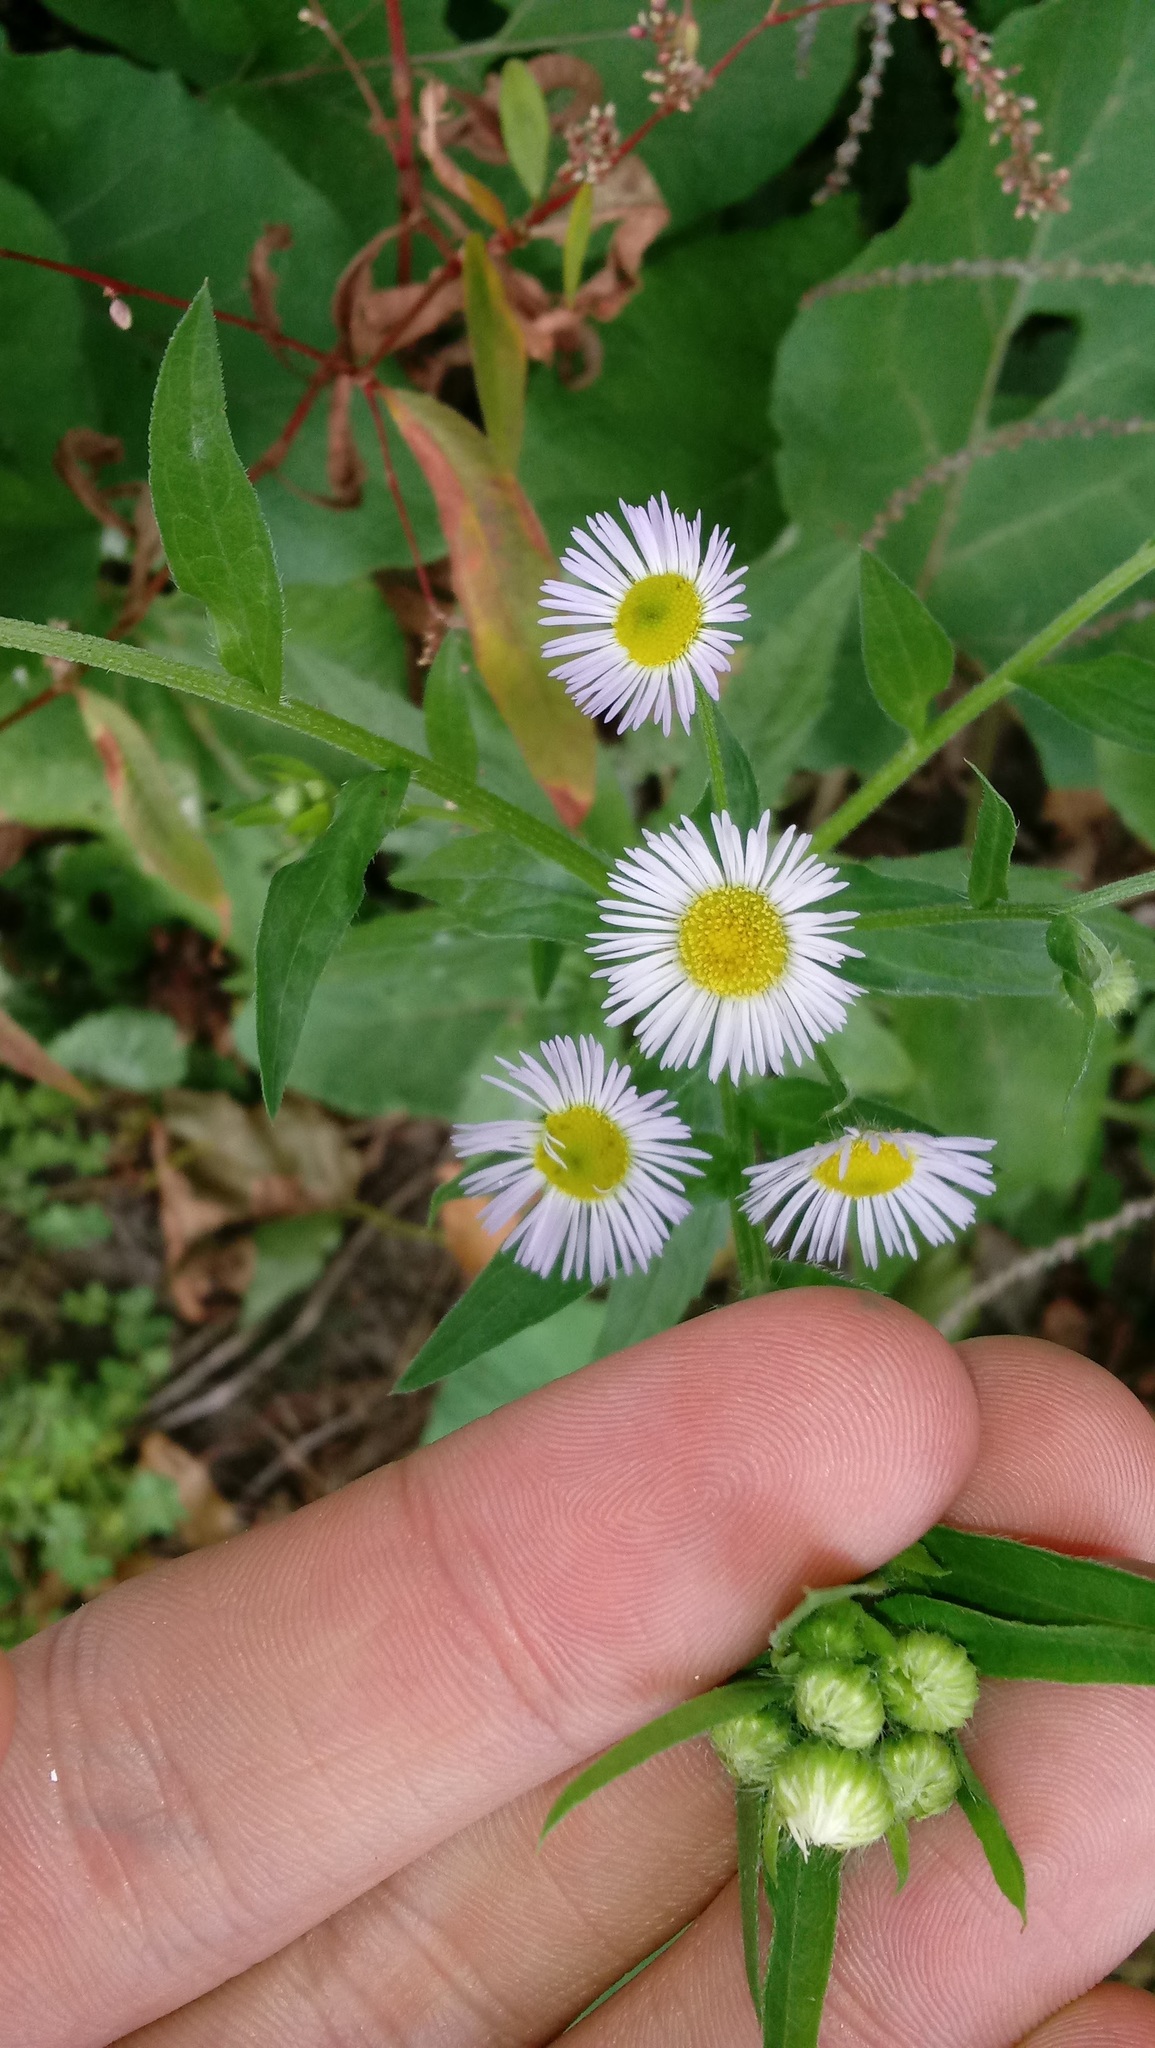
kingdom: Plantae
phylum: Tracheophyta
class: Magnoliopsida
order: Asterales
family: Asteraceae
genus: Erigeron
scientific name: Erigeron annuus
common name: Tall fleabane
